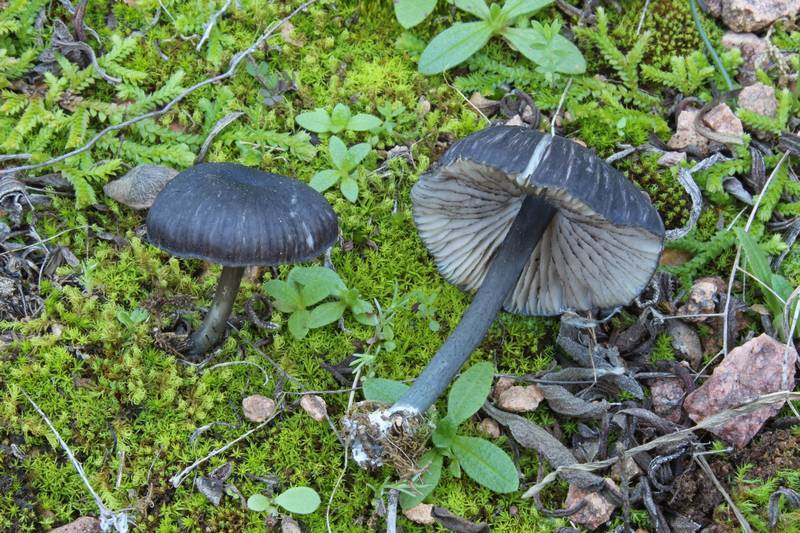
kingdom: Fungi
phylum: Basidiomycota
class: Agaricomycetes
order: Agaricales
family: Entolomataceae
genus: Entoloma
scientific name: Entoloma serrulatum
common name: Blue edge pinkgill
